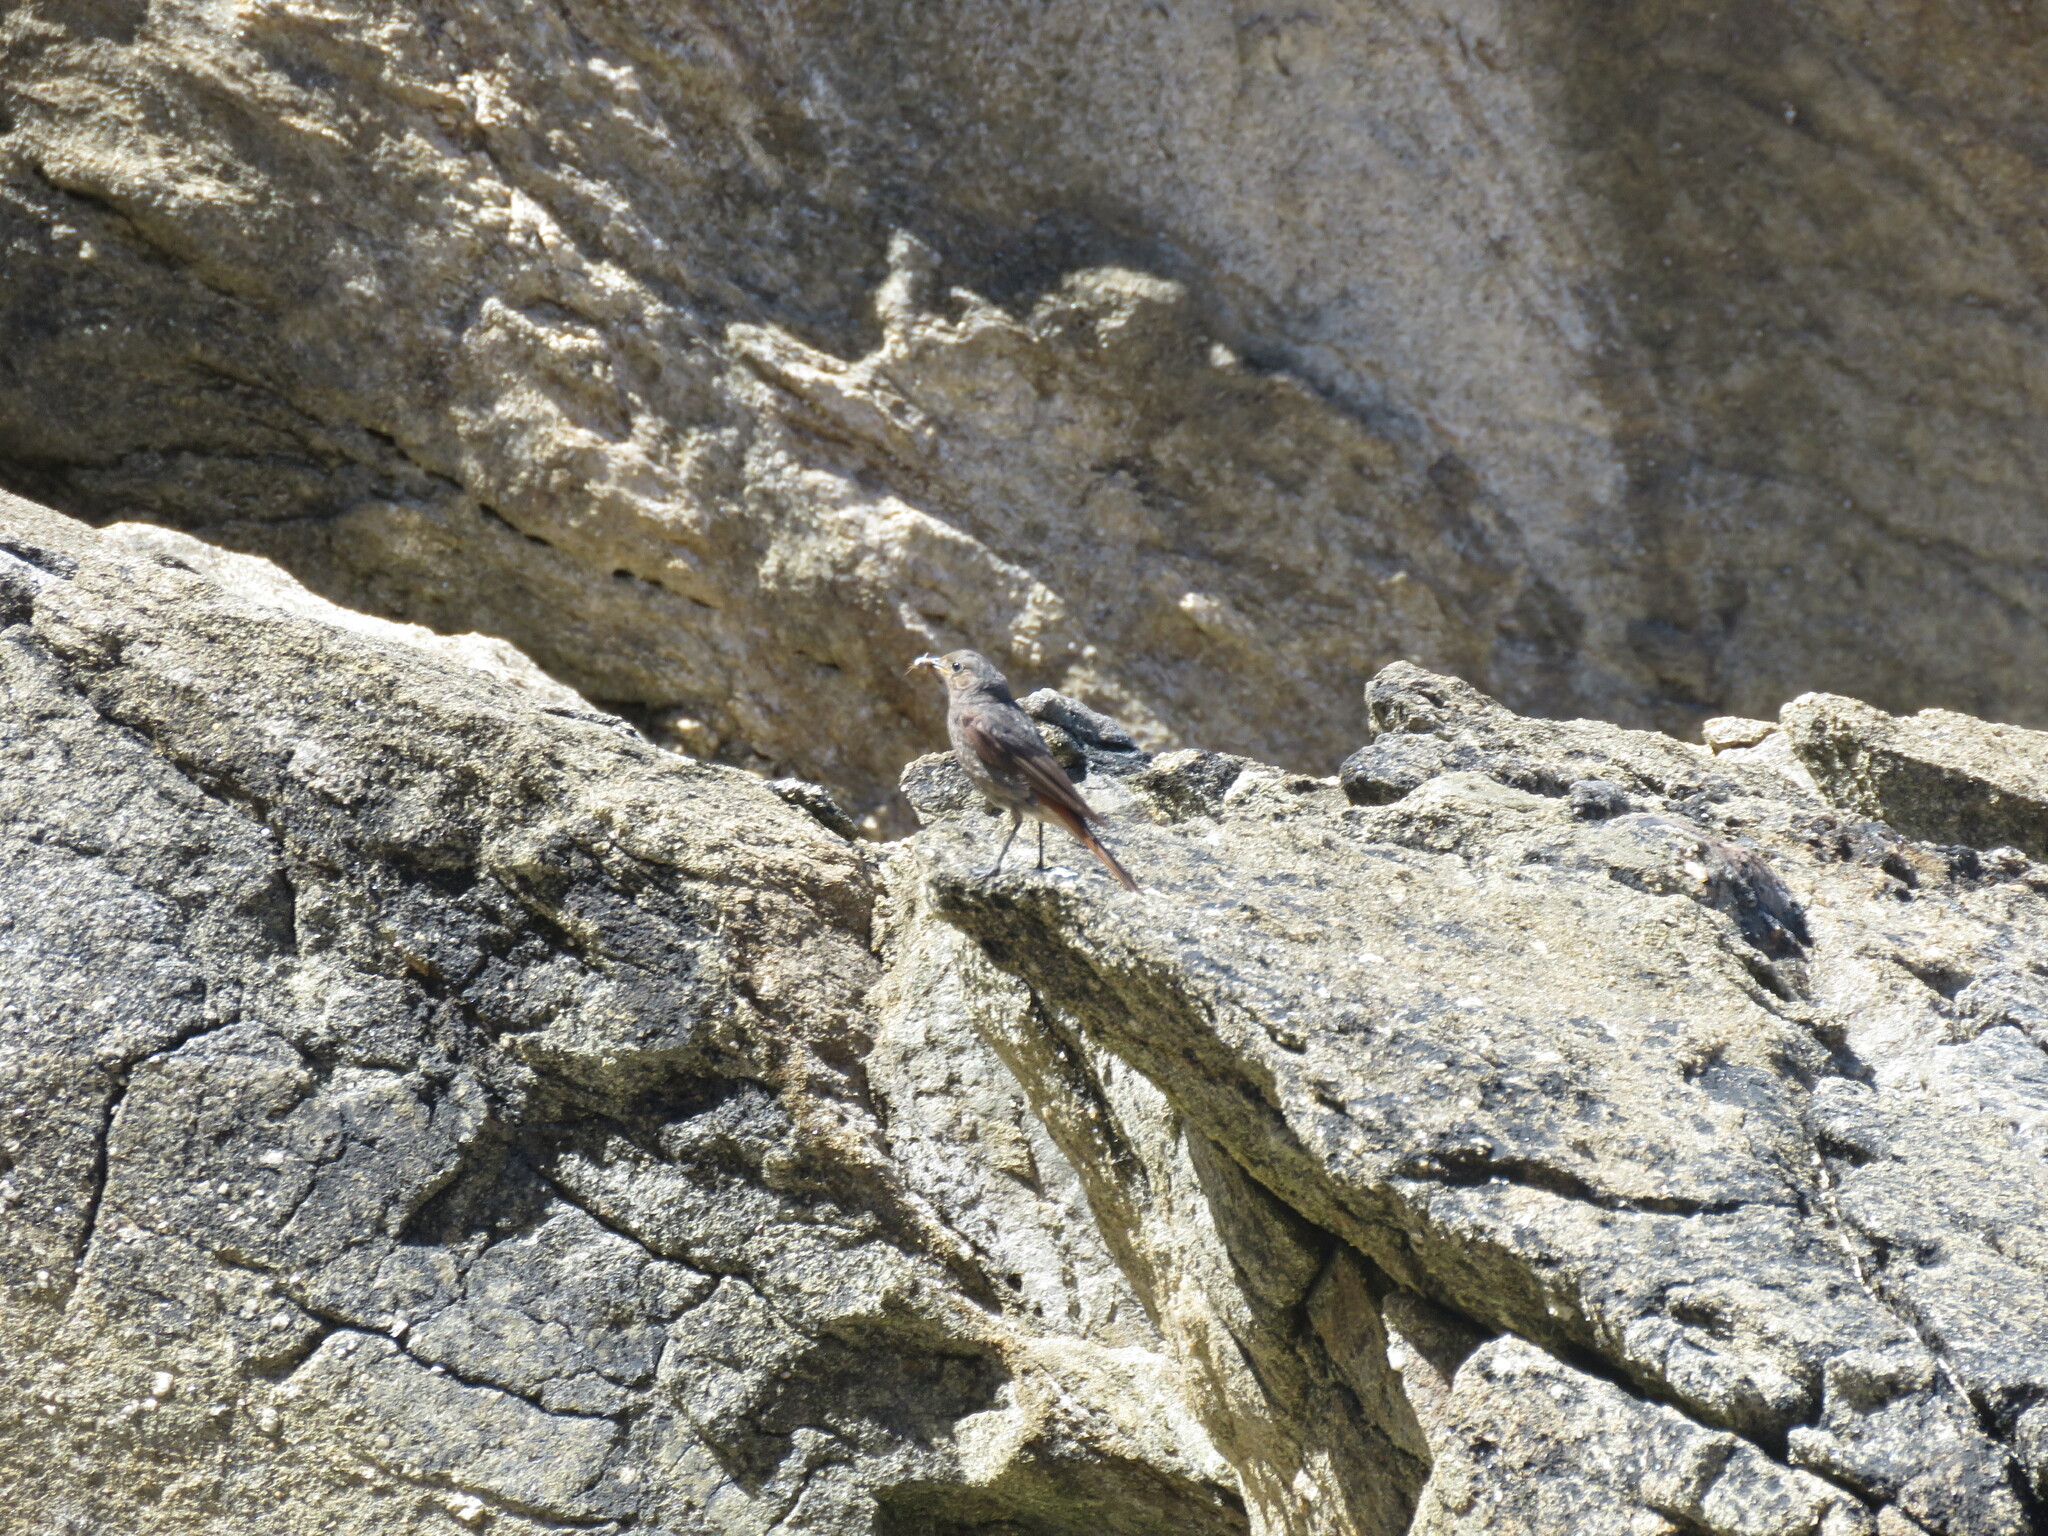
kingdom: Animalia
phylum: Chordata
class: Aves
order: Passeriformes
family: Muscicapidae
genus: Phoenicurus
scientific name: Phoenicurus ochruros
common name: Black redstart
